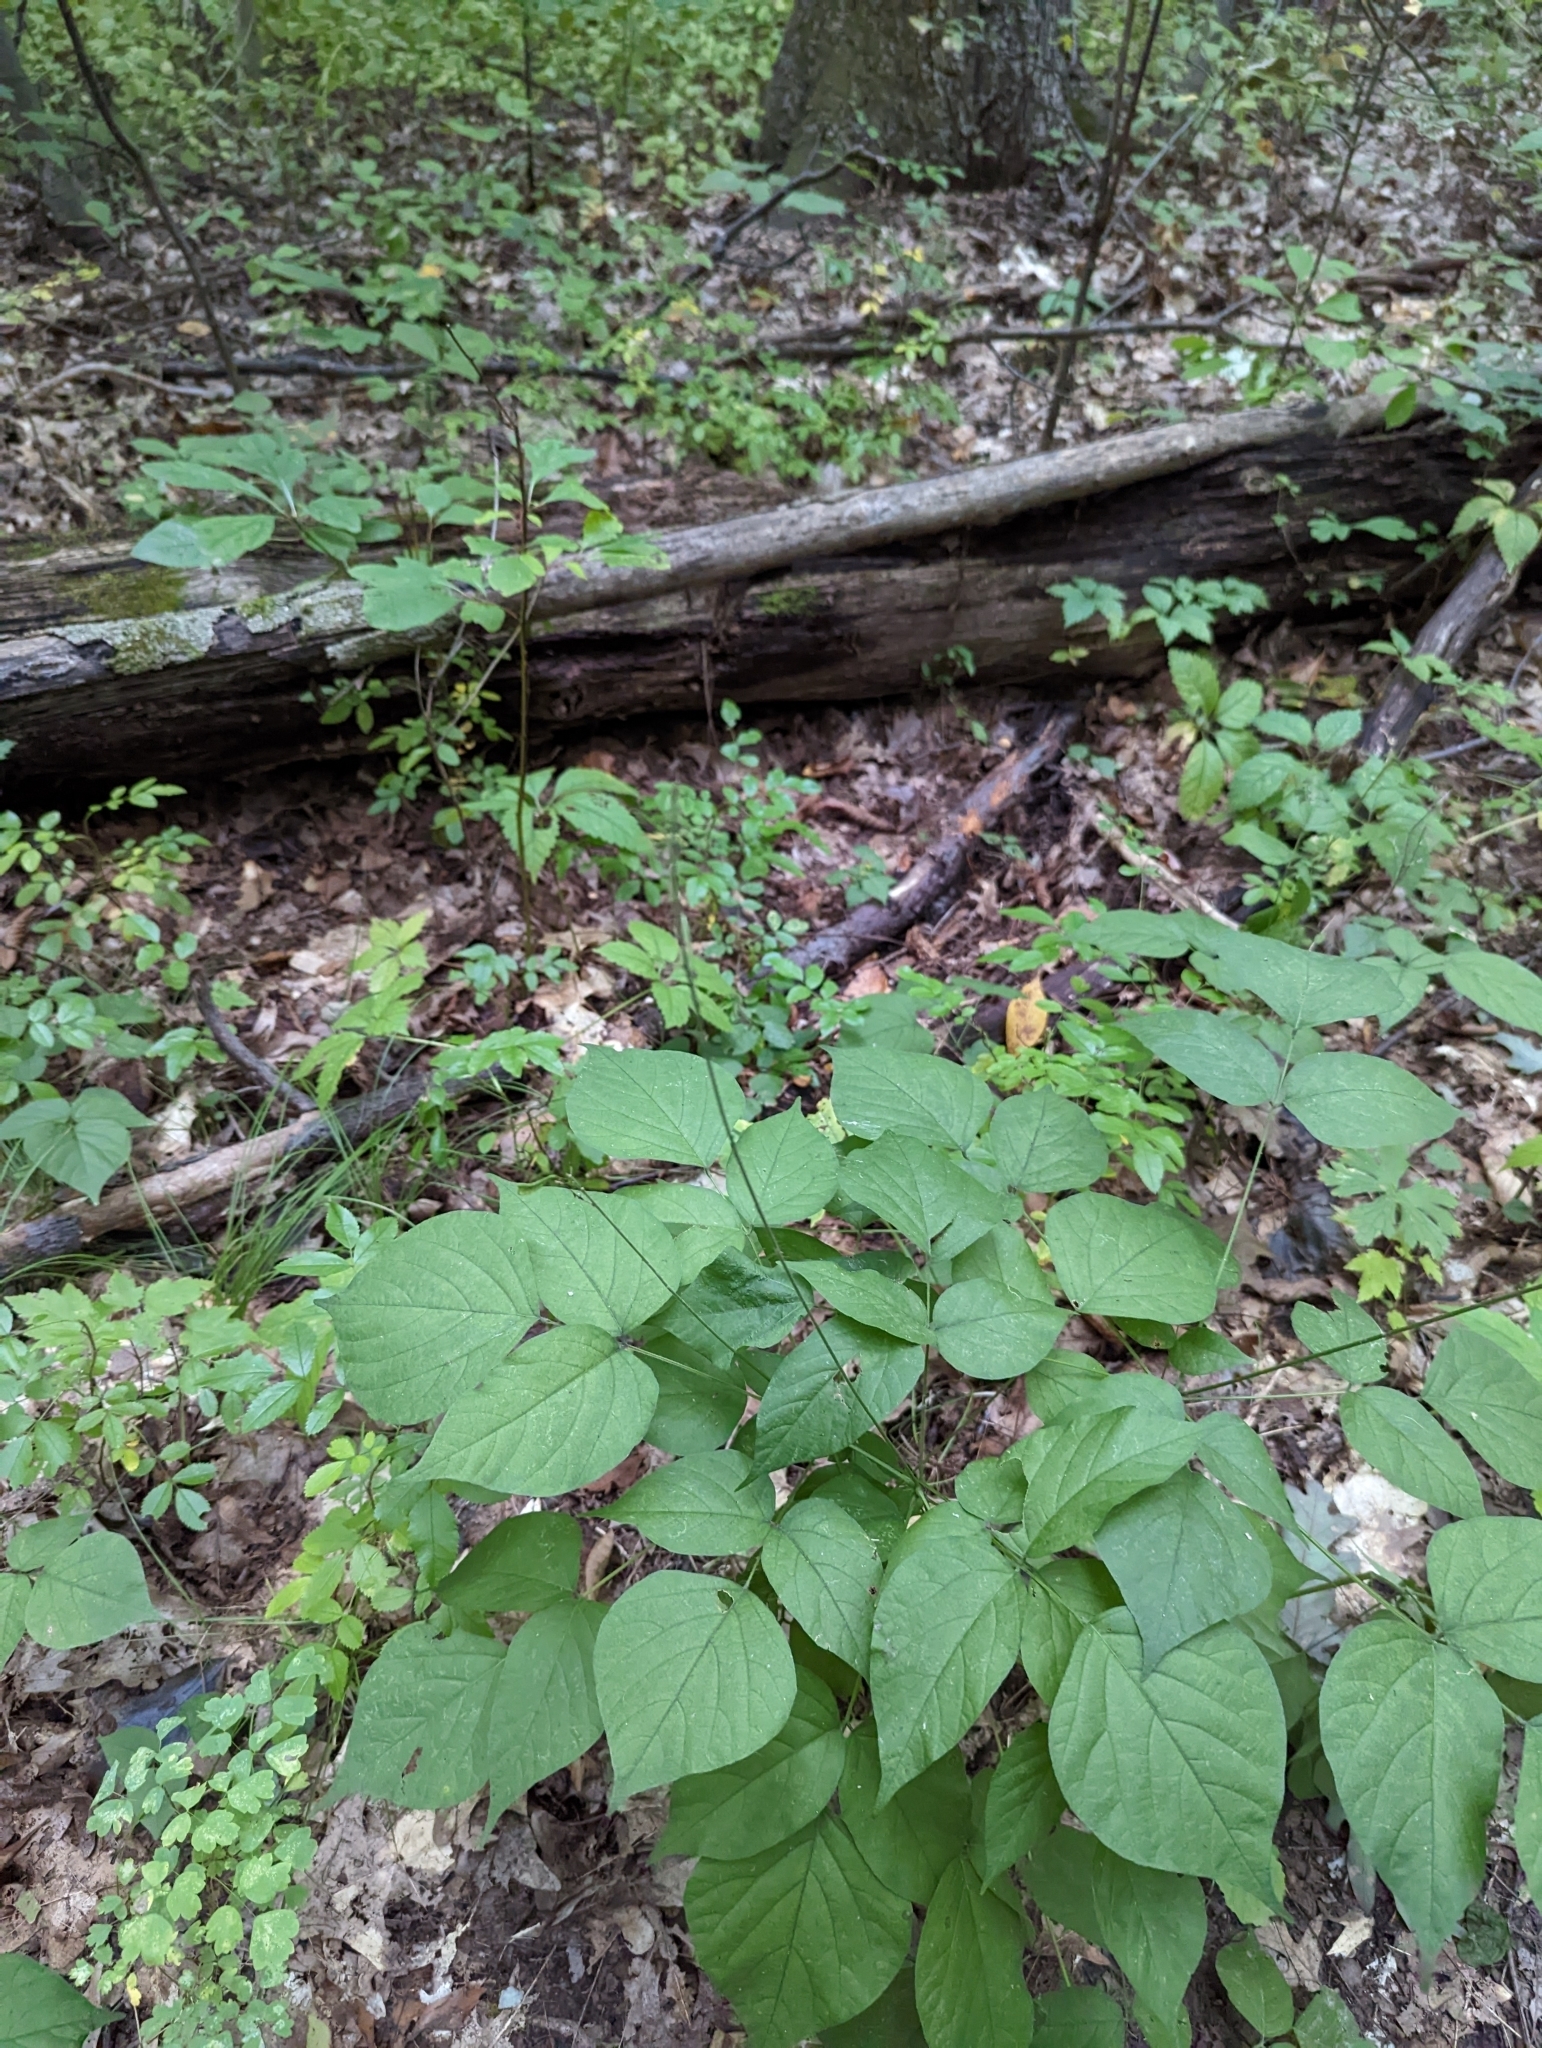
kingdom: Animalia
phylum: Arthropoda
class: Insecta
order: Diptera
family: Cecidomyiidae
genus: Neolasioptera
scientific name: Neolasioptera desmodii
